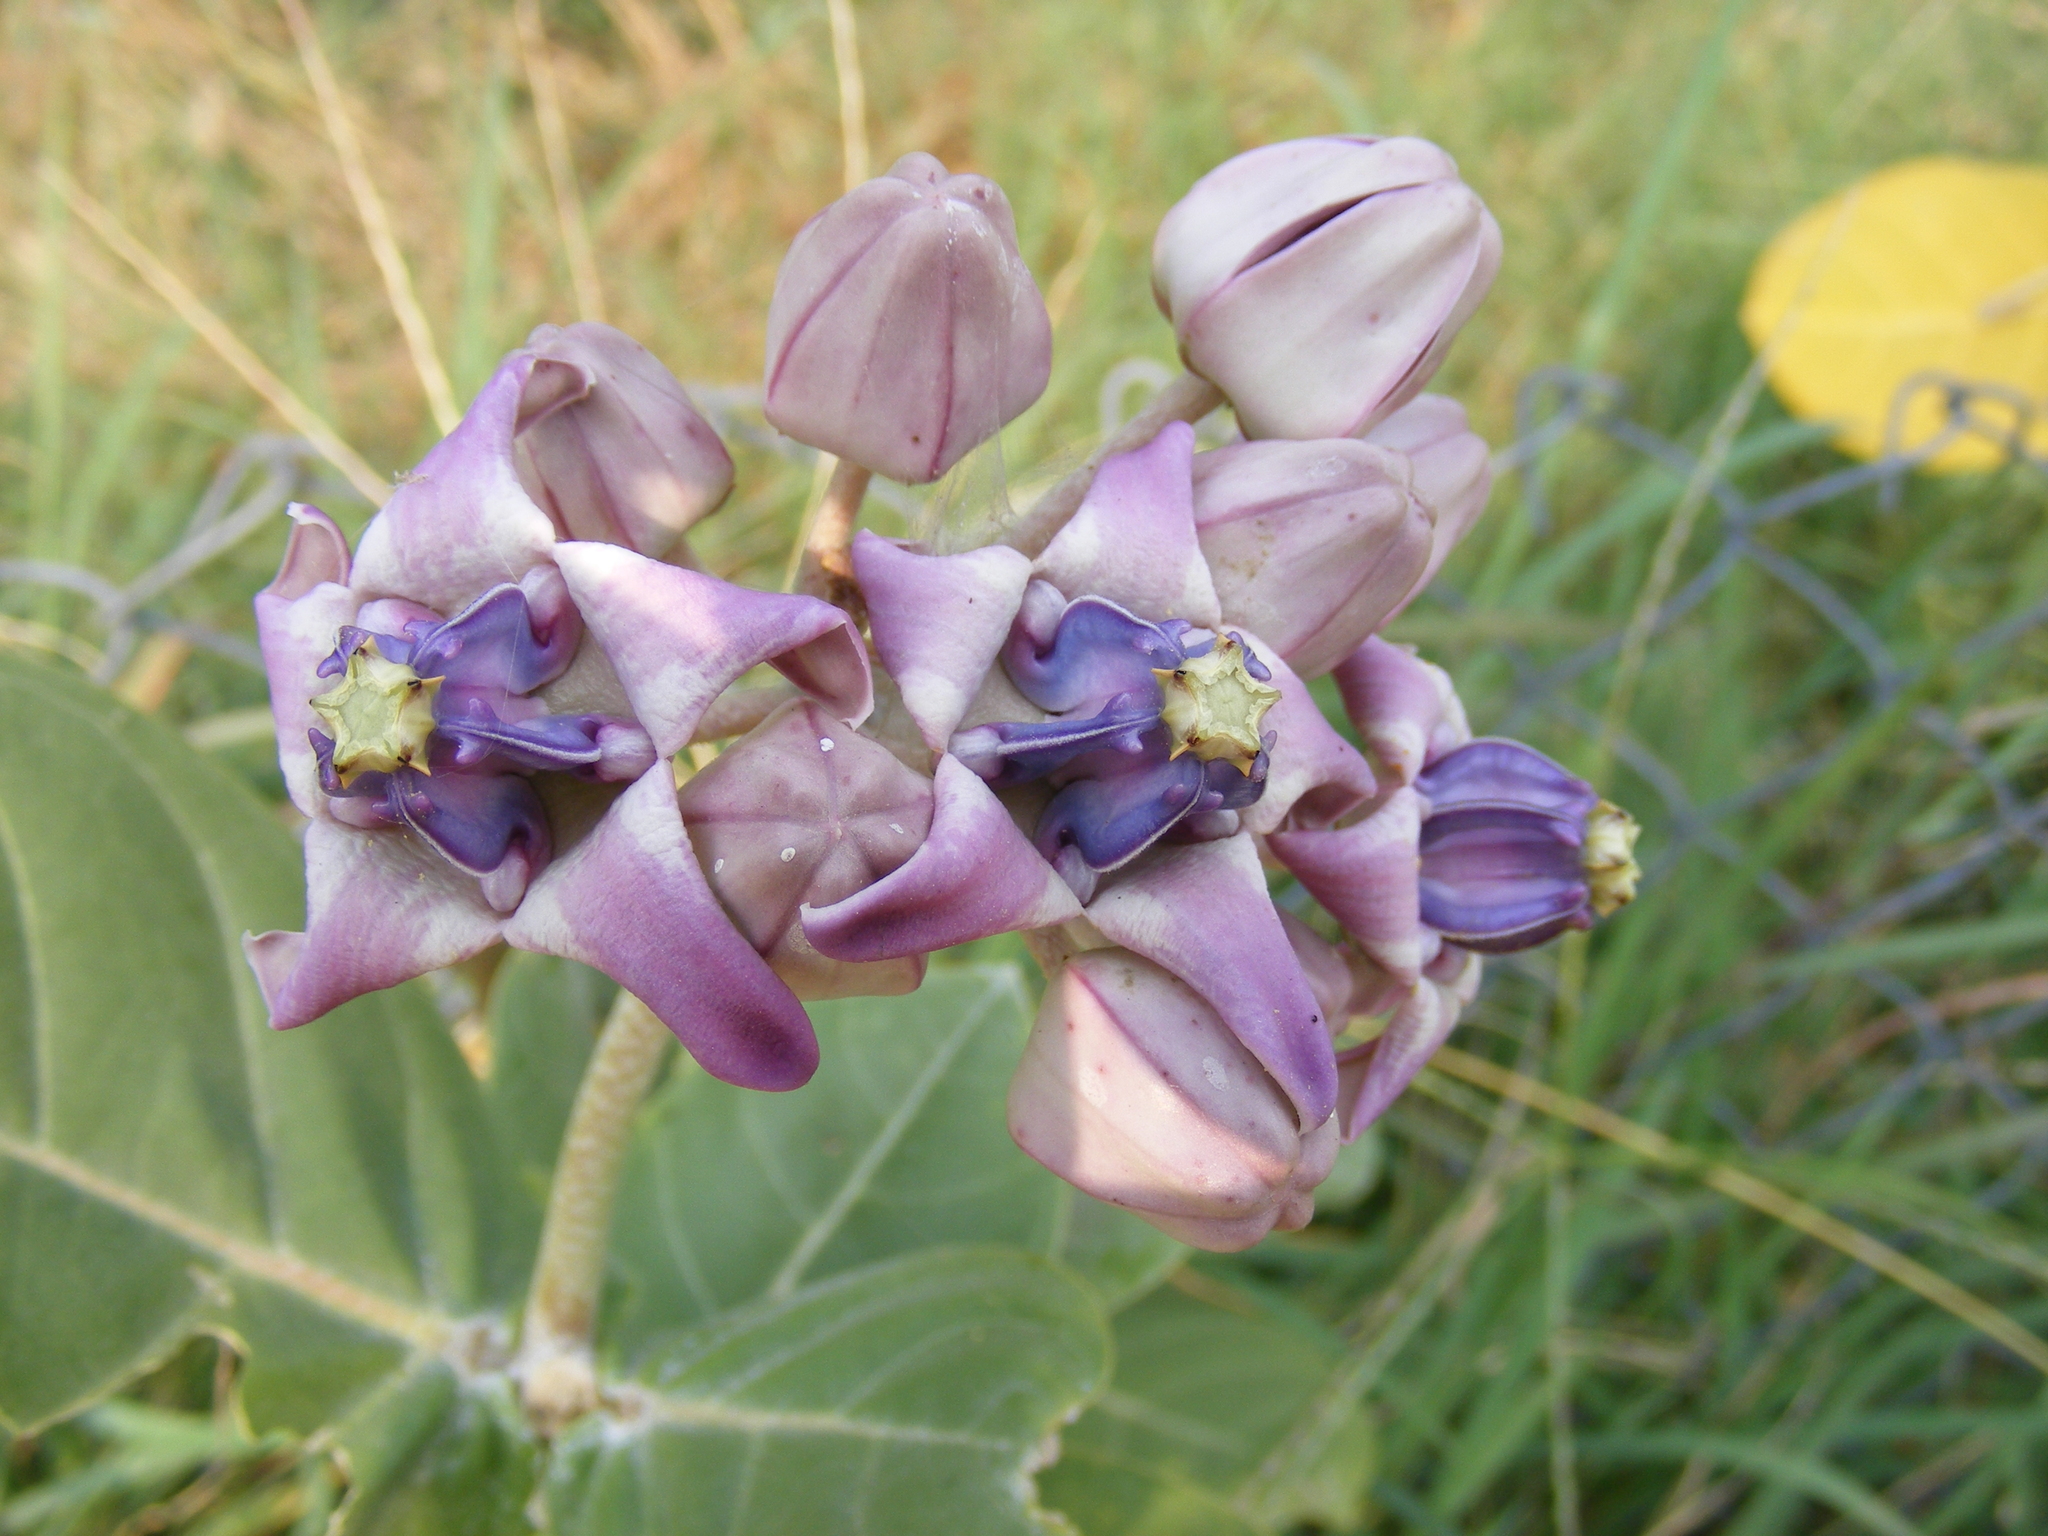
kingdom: Plantae
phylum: Tracheophyta
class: Magnoliopsida
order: Gentianales
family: Apocynaceae
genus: Calotropis
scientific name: Calotropis gigantea
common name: Crown flower
